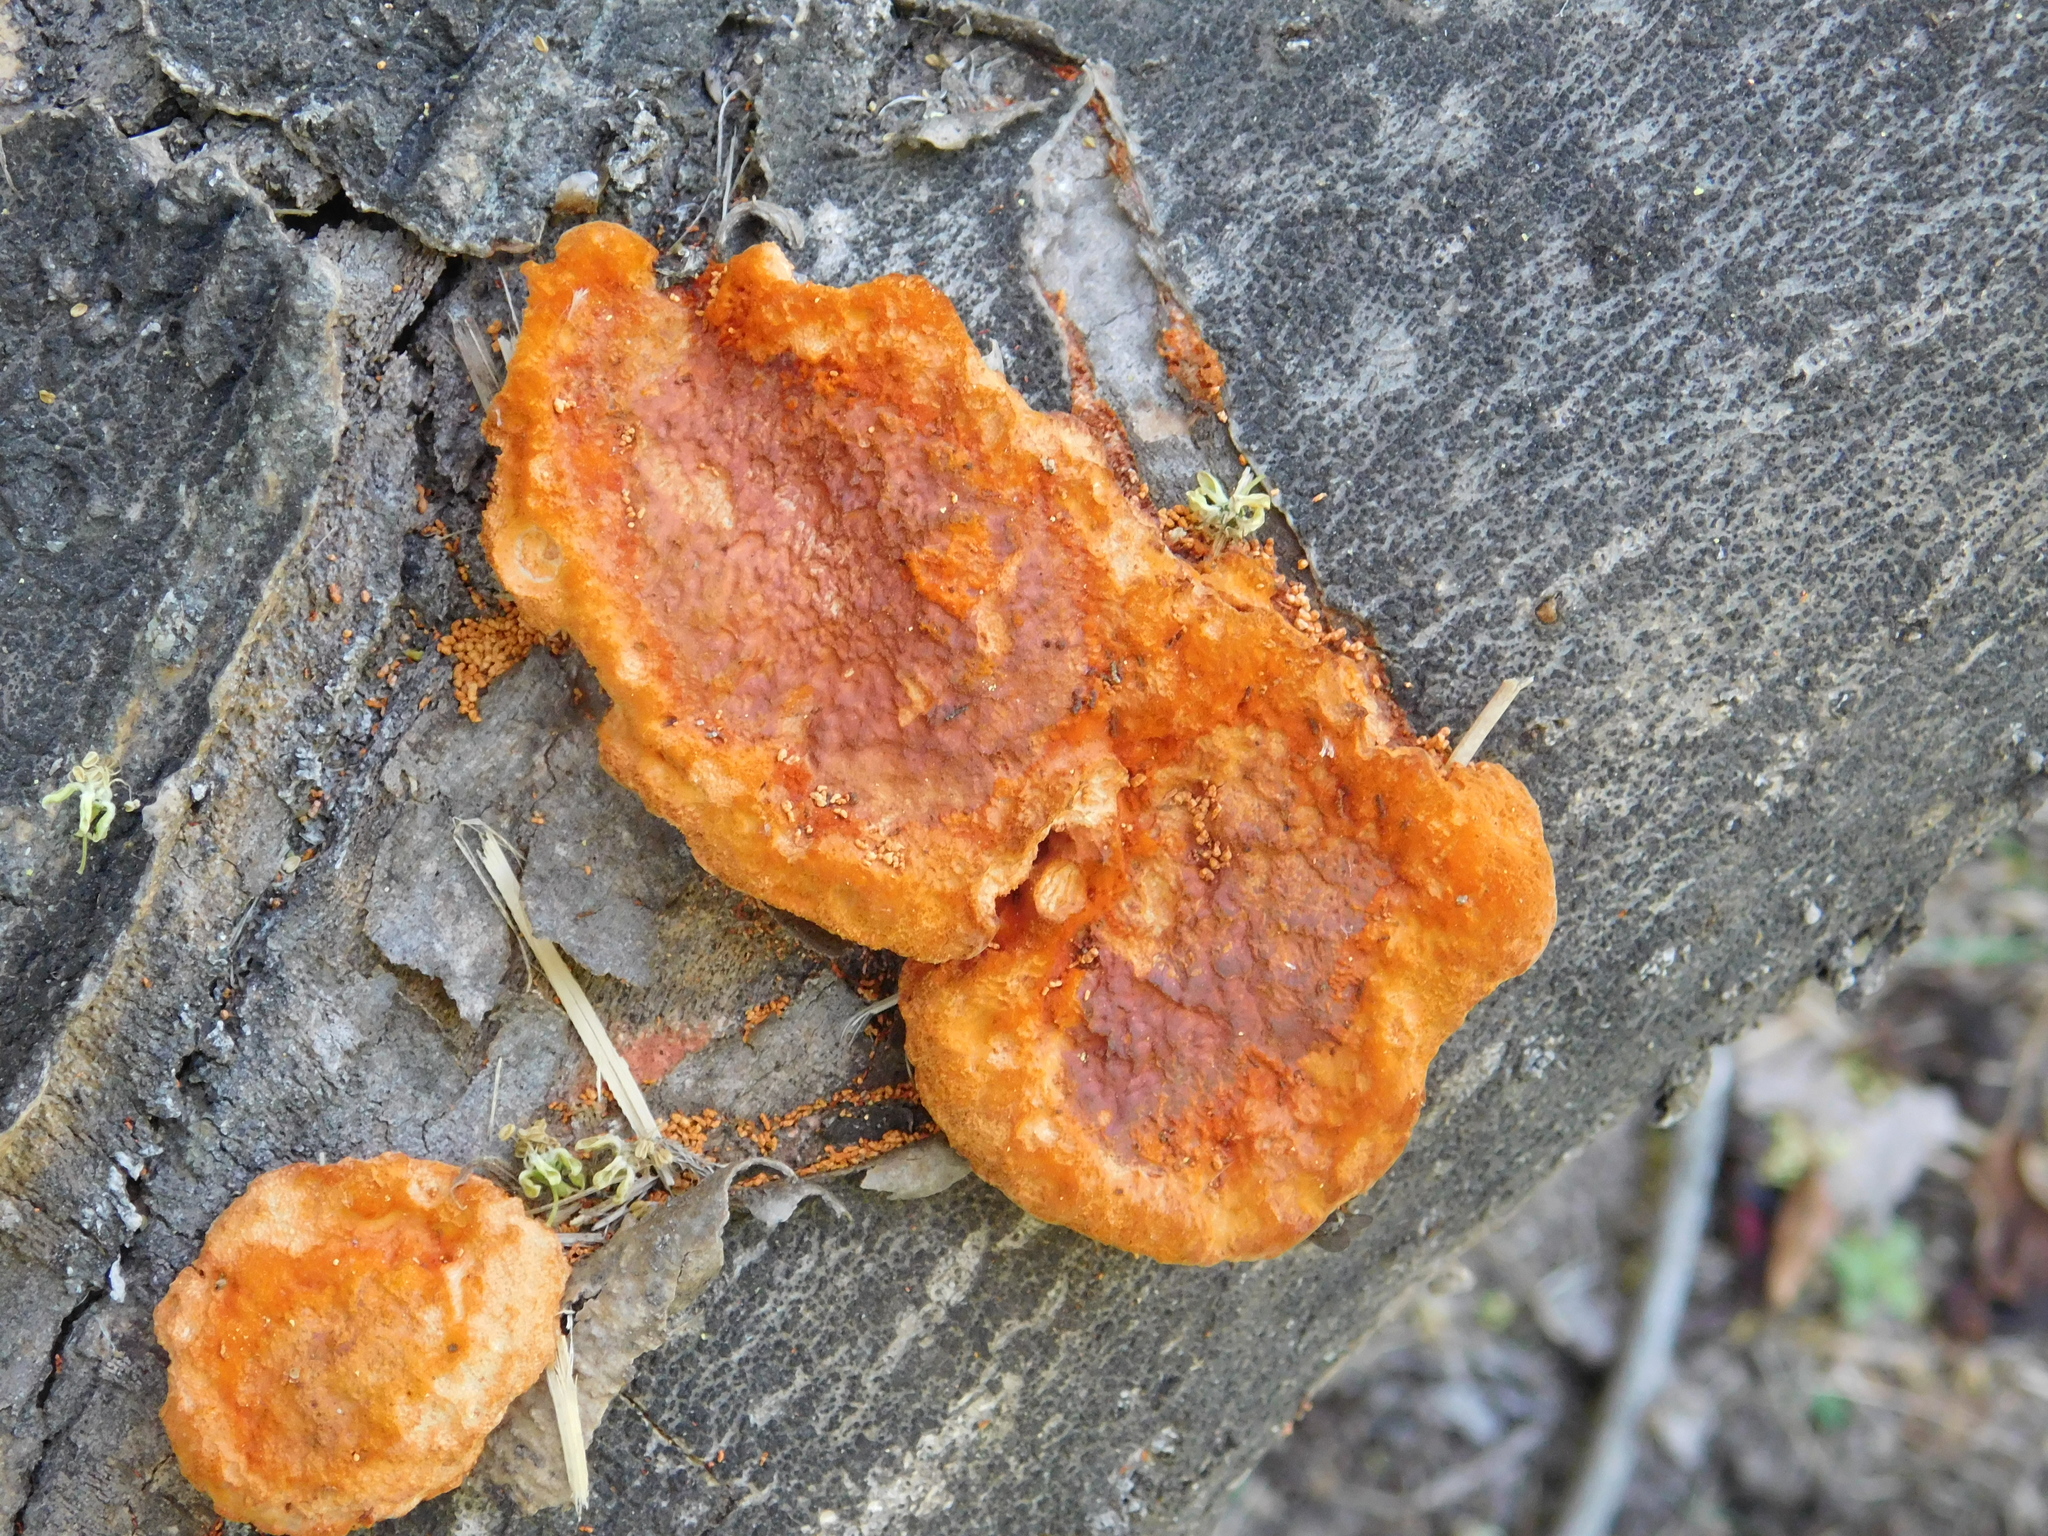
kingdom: Fungi
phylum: Basidiomycota
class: Agaricomycetes
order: Polyporales
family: Polyporaceae
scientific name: Polyporaceae
